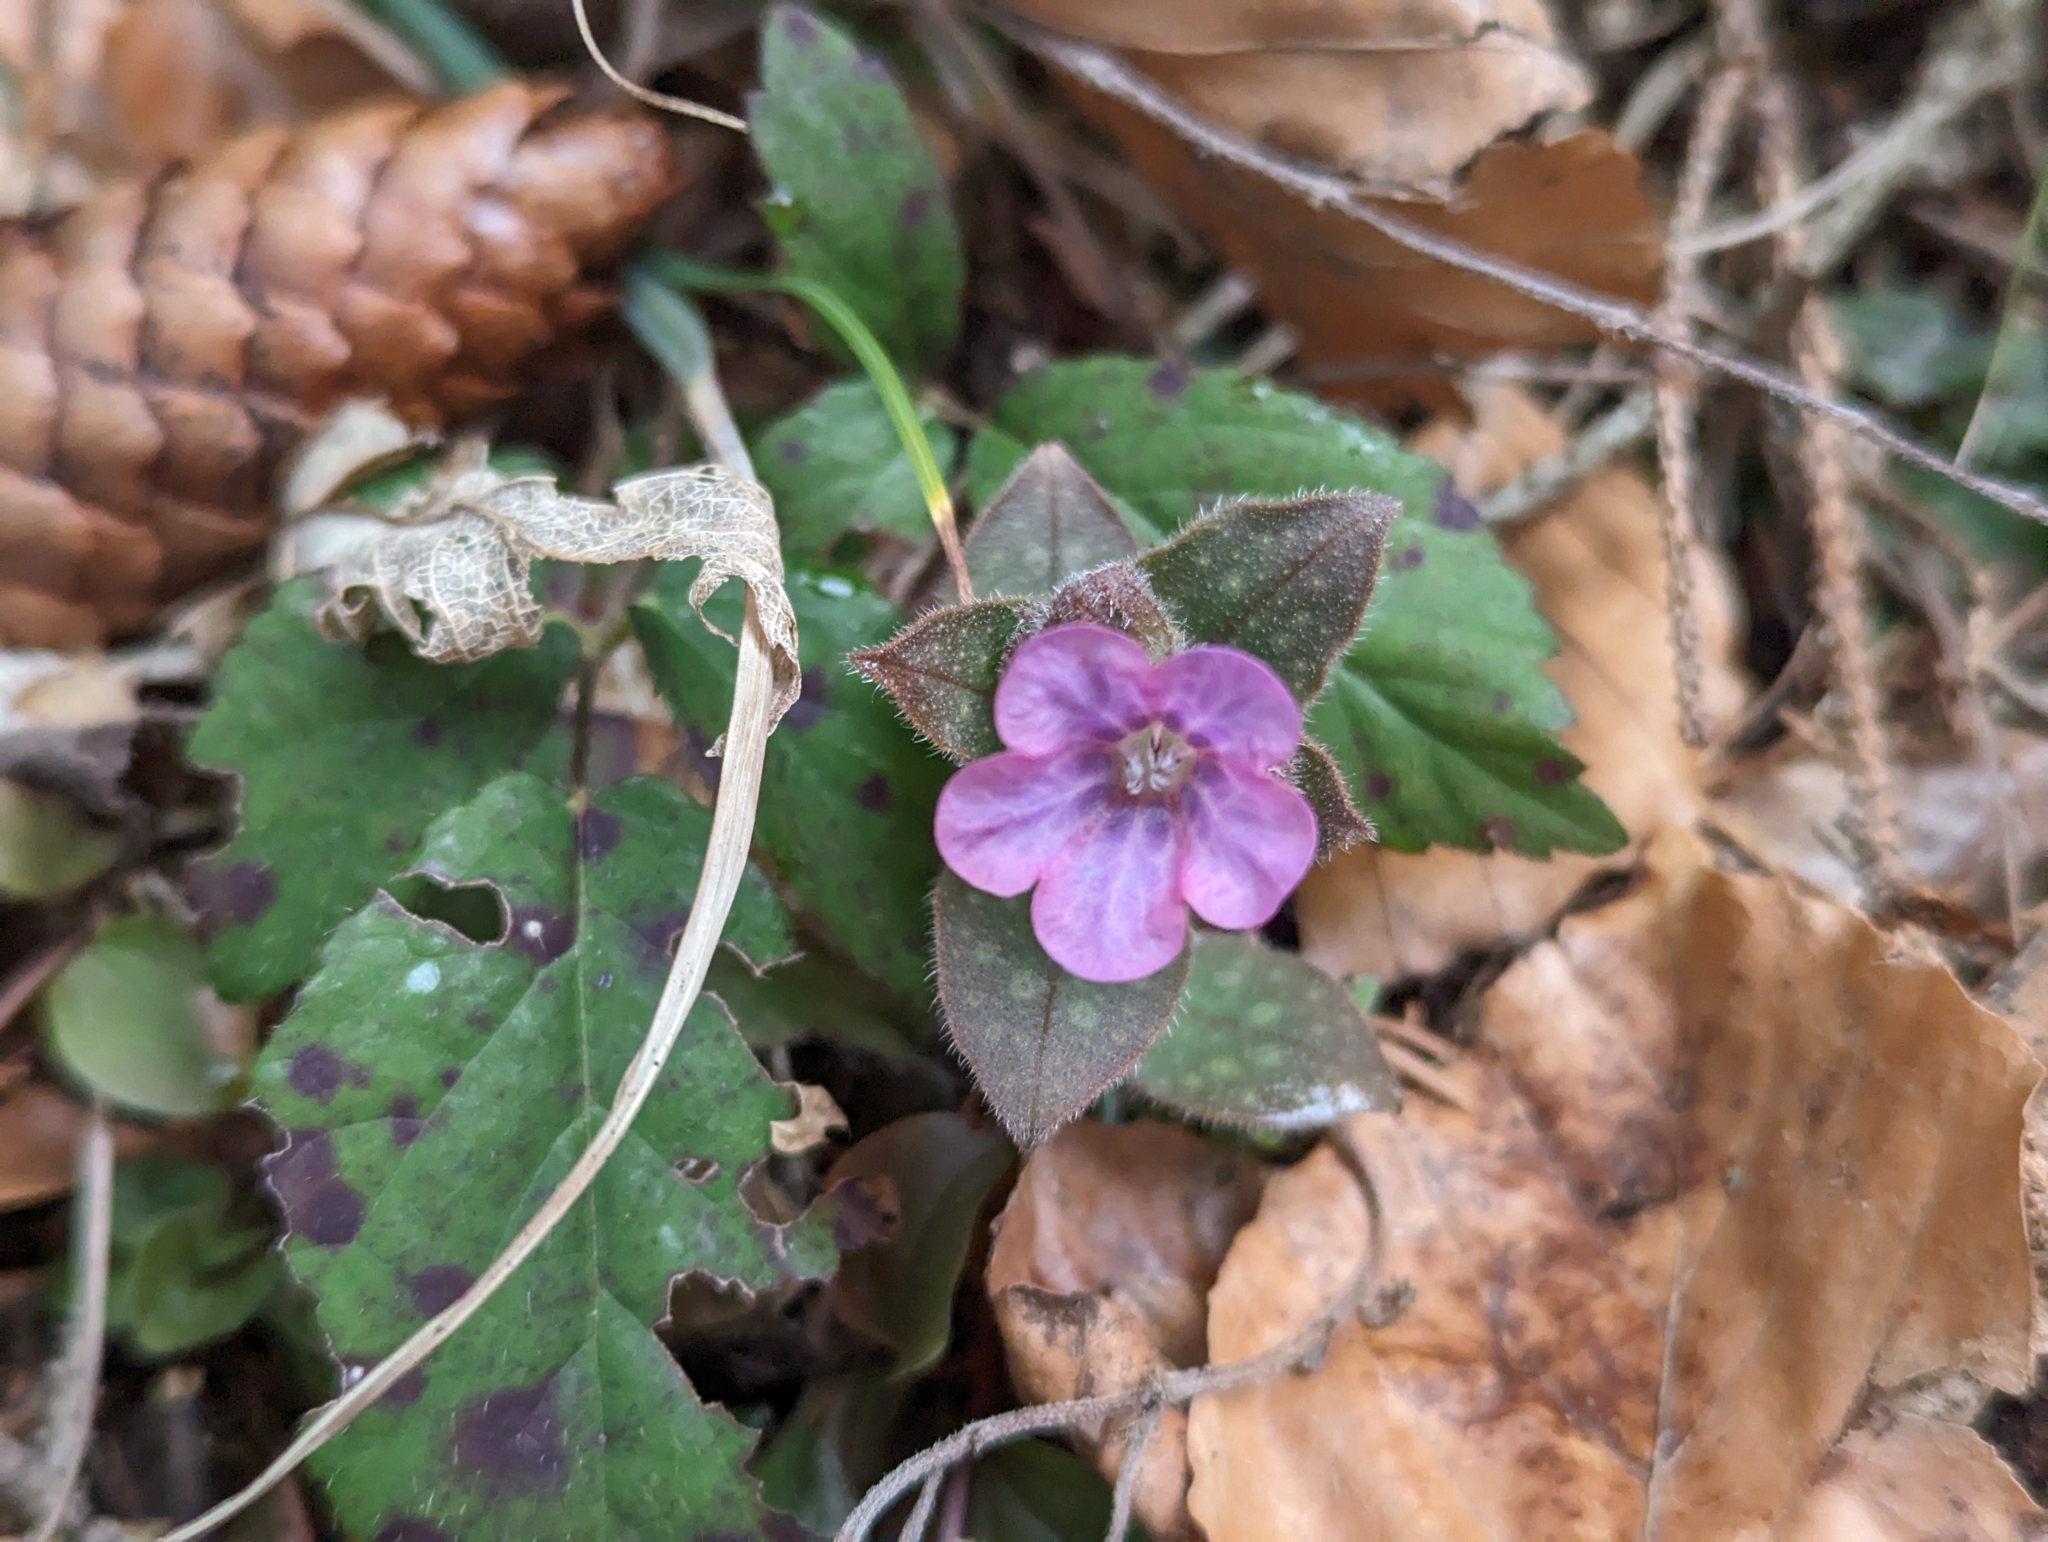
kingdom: Plantae
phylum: Tracheophyta
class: Magnoliopsida
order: Boraginales
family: Boraginaceae
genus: Pulmonaria
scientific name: Pulmonaria officinalis
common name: Lungwort
